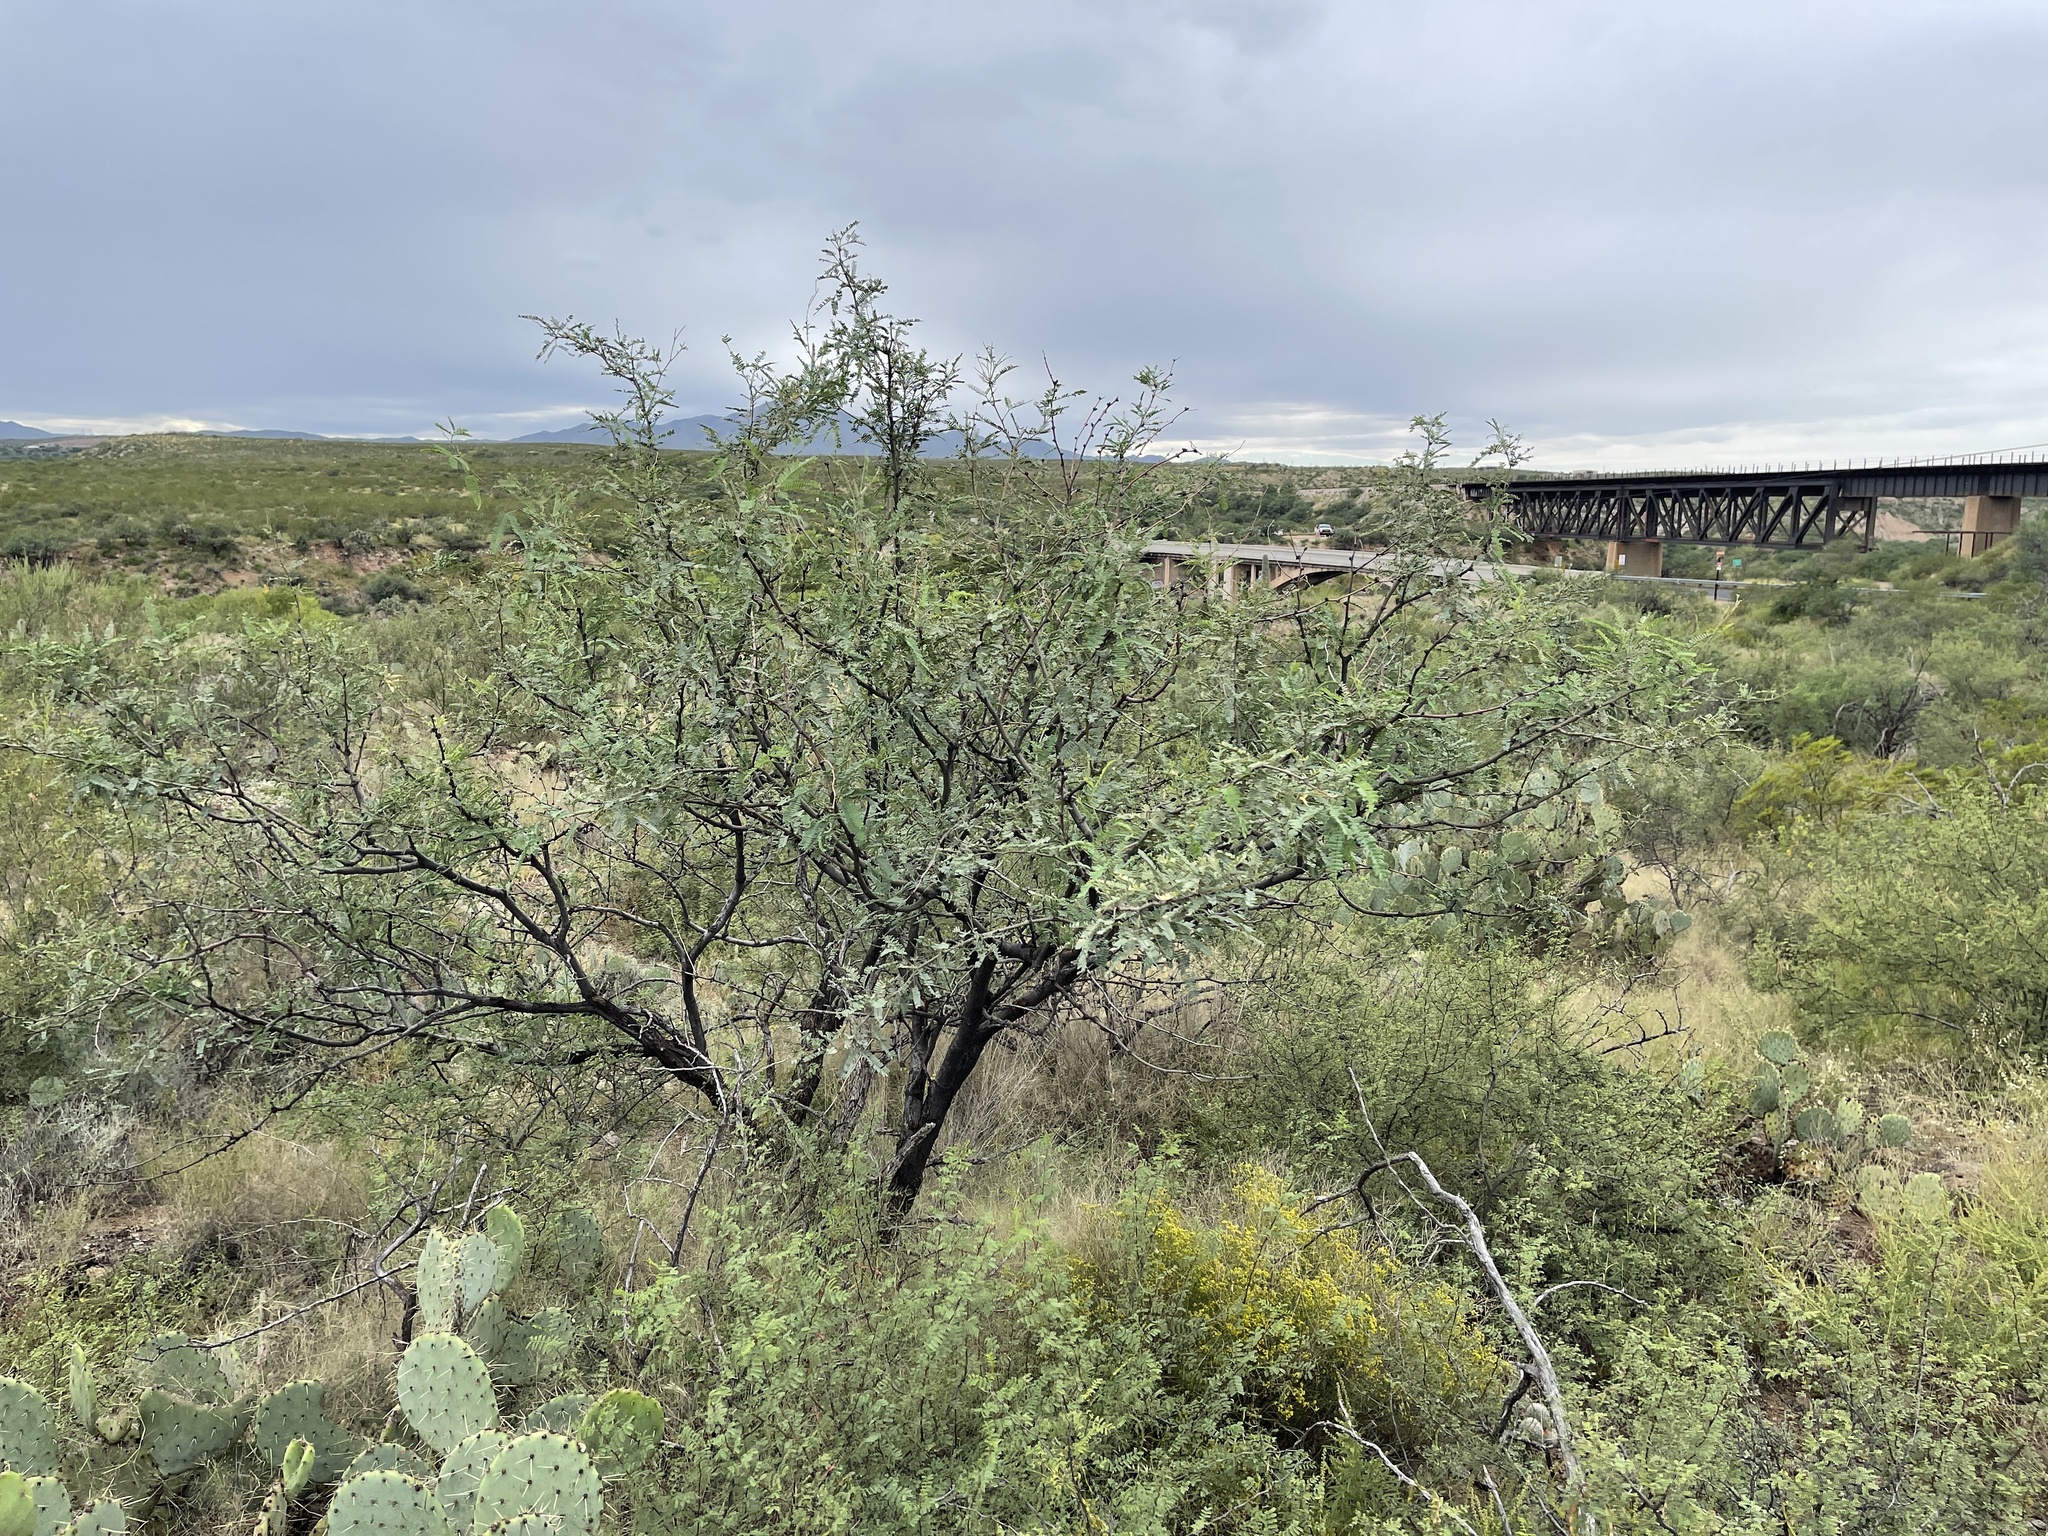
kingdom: Plantae
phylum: Tracheophyta
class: Magnoliopsida
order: Fabales
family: Fabaceae
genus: Prosopis
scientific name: Prosopis velutina
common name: Velvet mesquite
